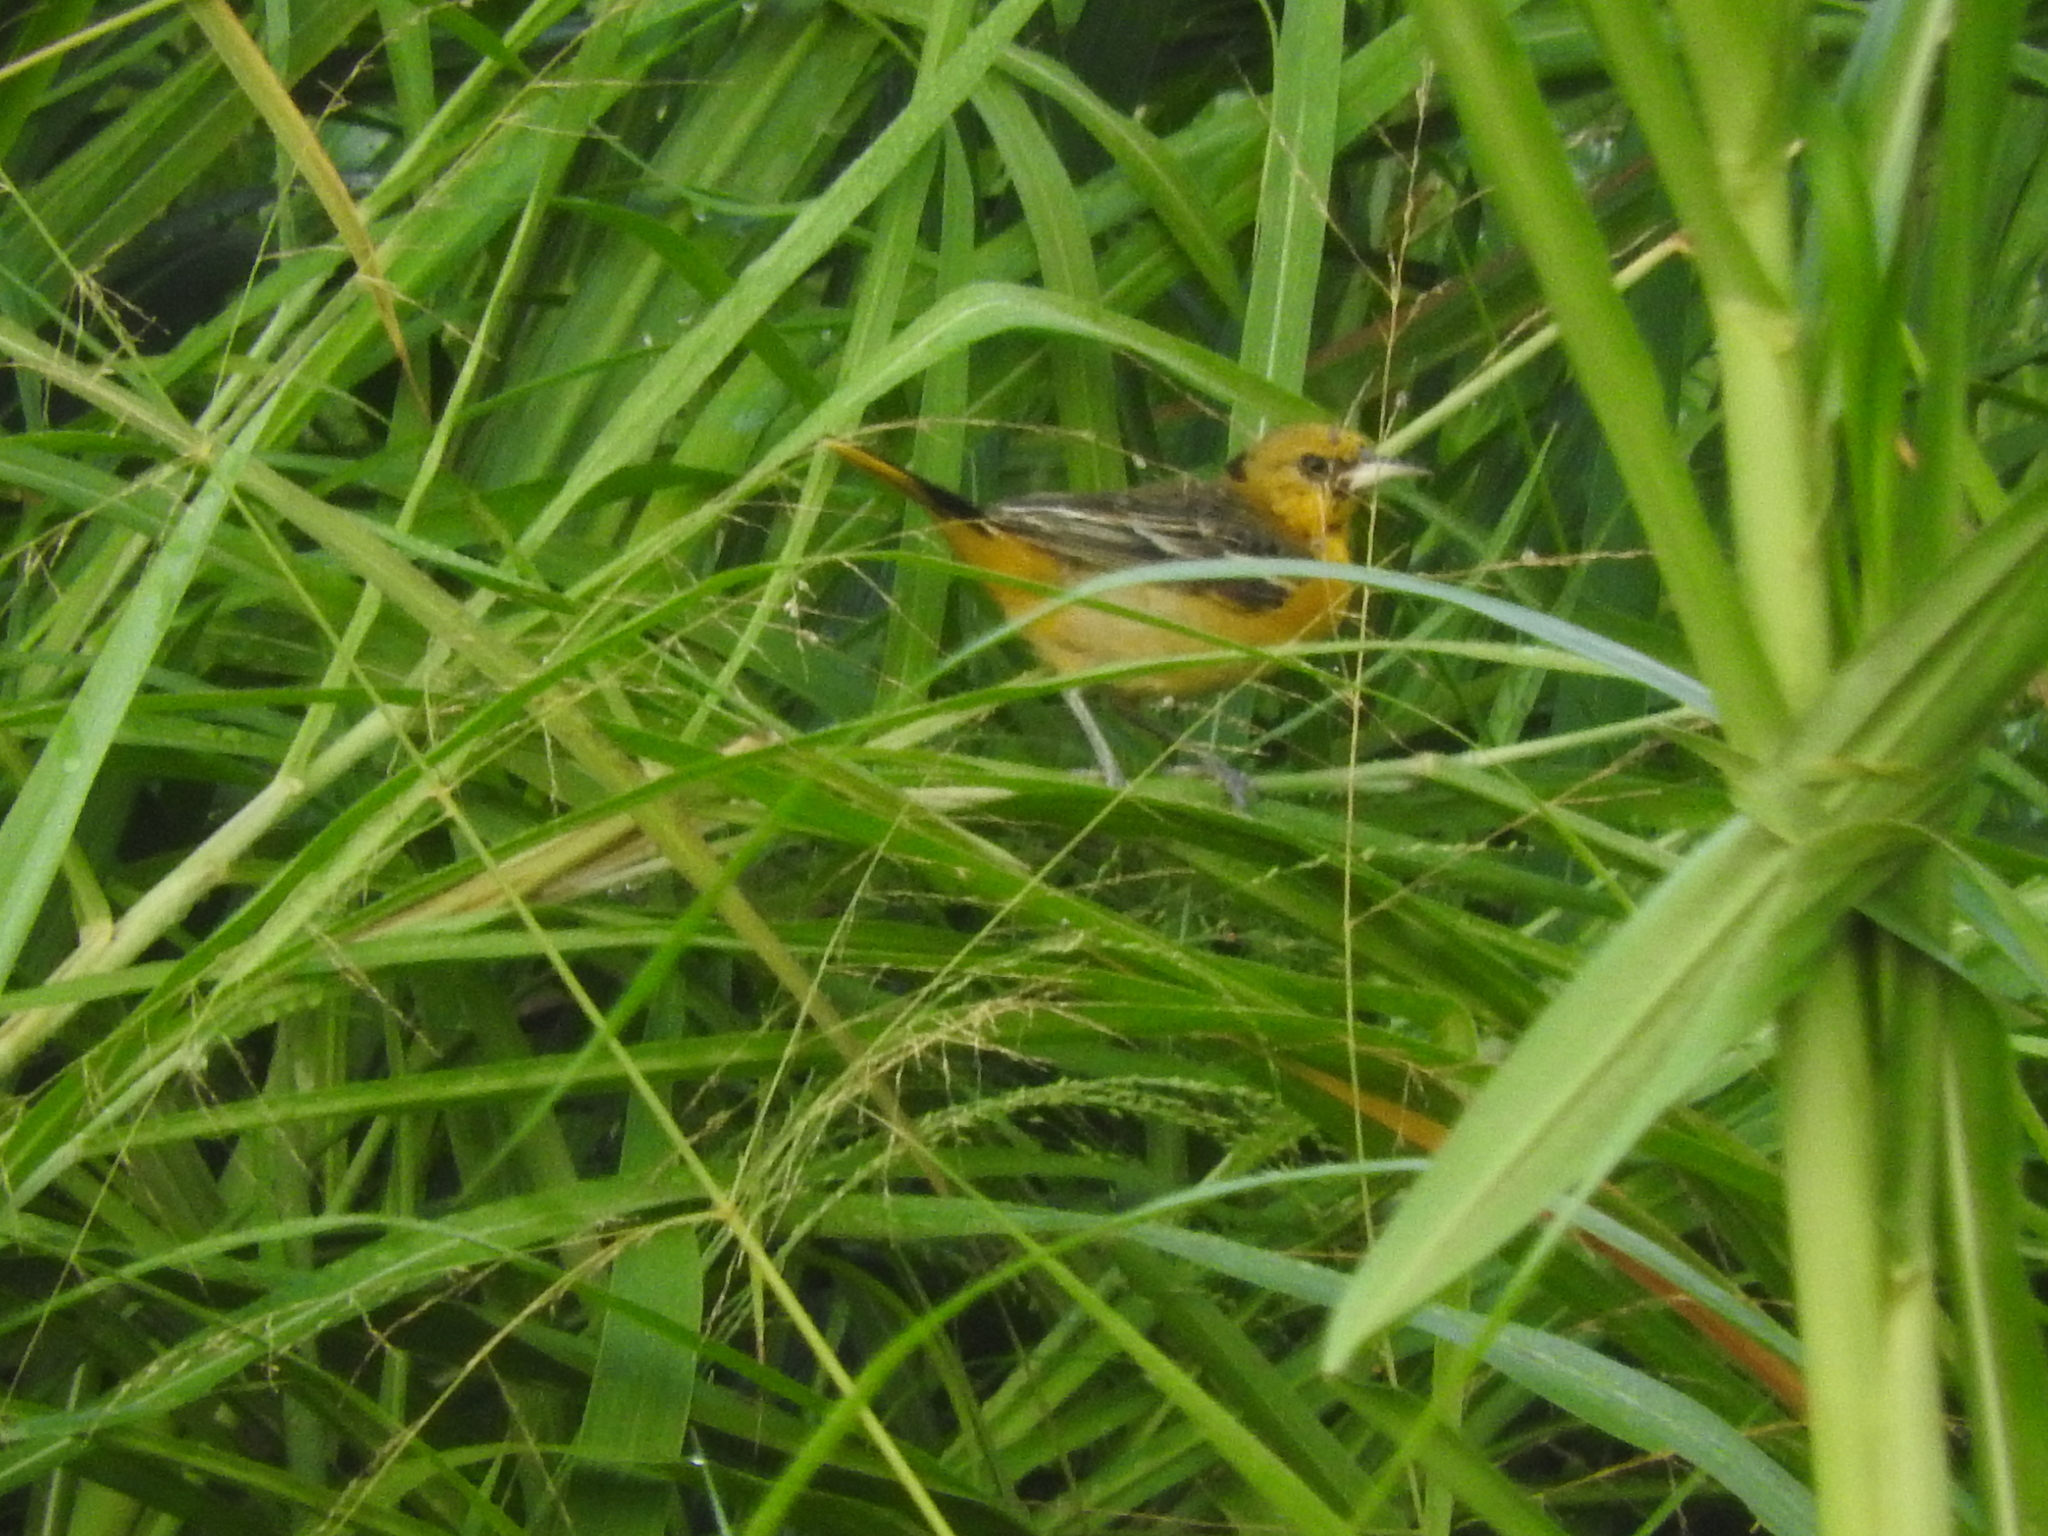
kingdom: Animalia
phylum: Chordata
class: Aves
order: Passeriformes
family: Icteridae
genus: Icterus
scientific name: Icterus galbula
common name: Baltimore oriole
